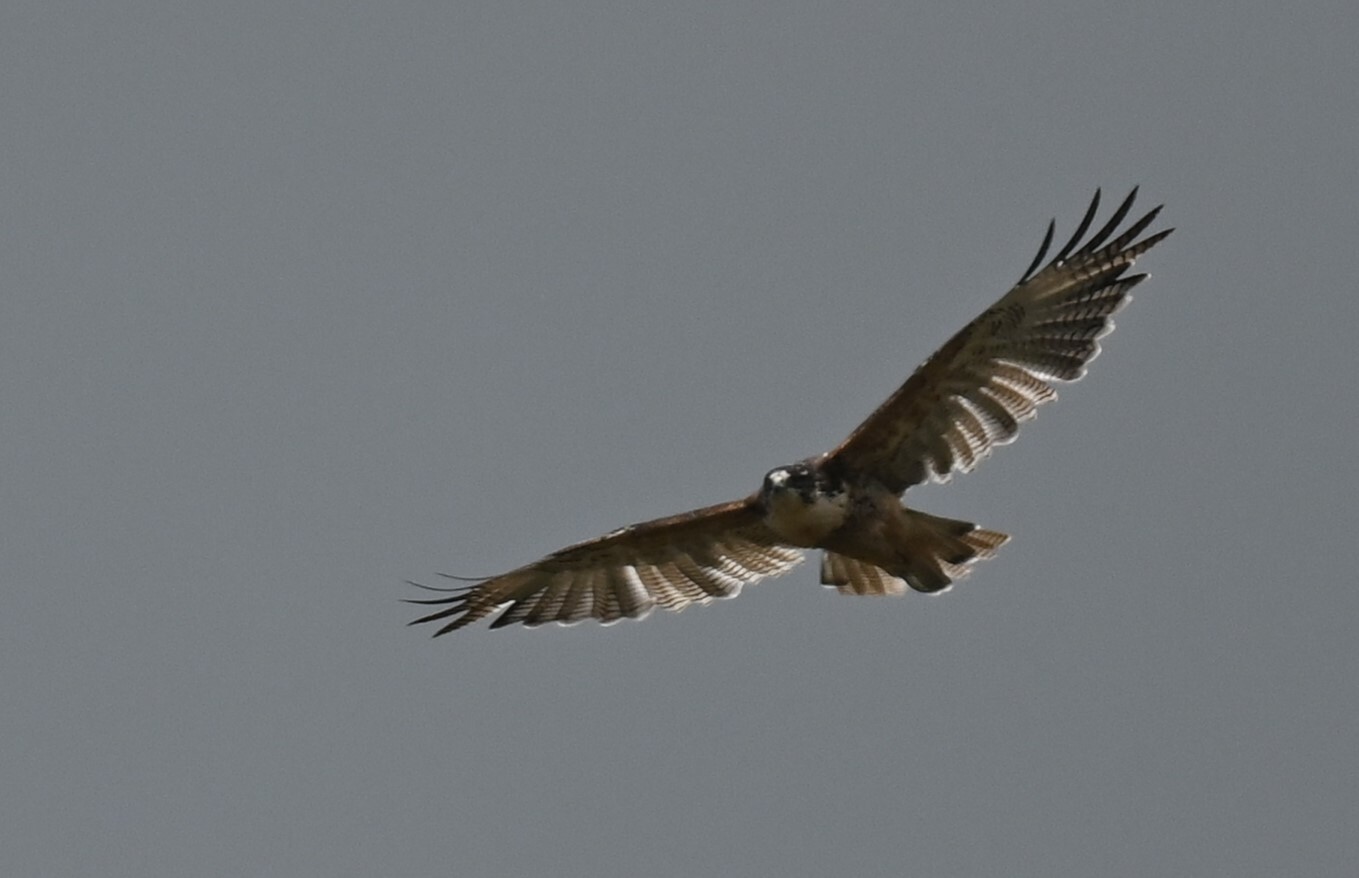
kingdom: Animalia
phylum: Chordata
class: Aves
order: Accipitriformes
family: Accipitridae
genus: Buteo
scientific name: Buteo polyosoma
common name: Variable hawk
